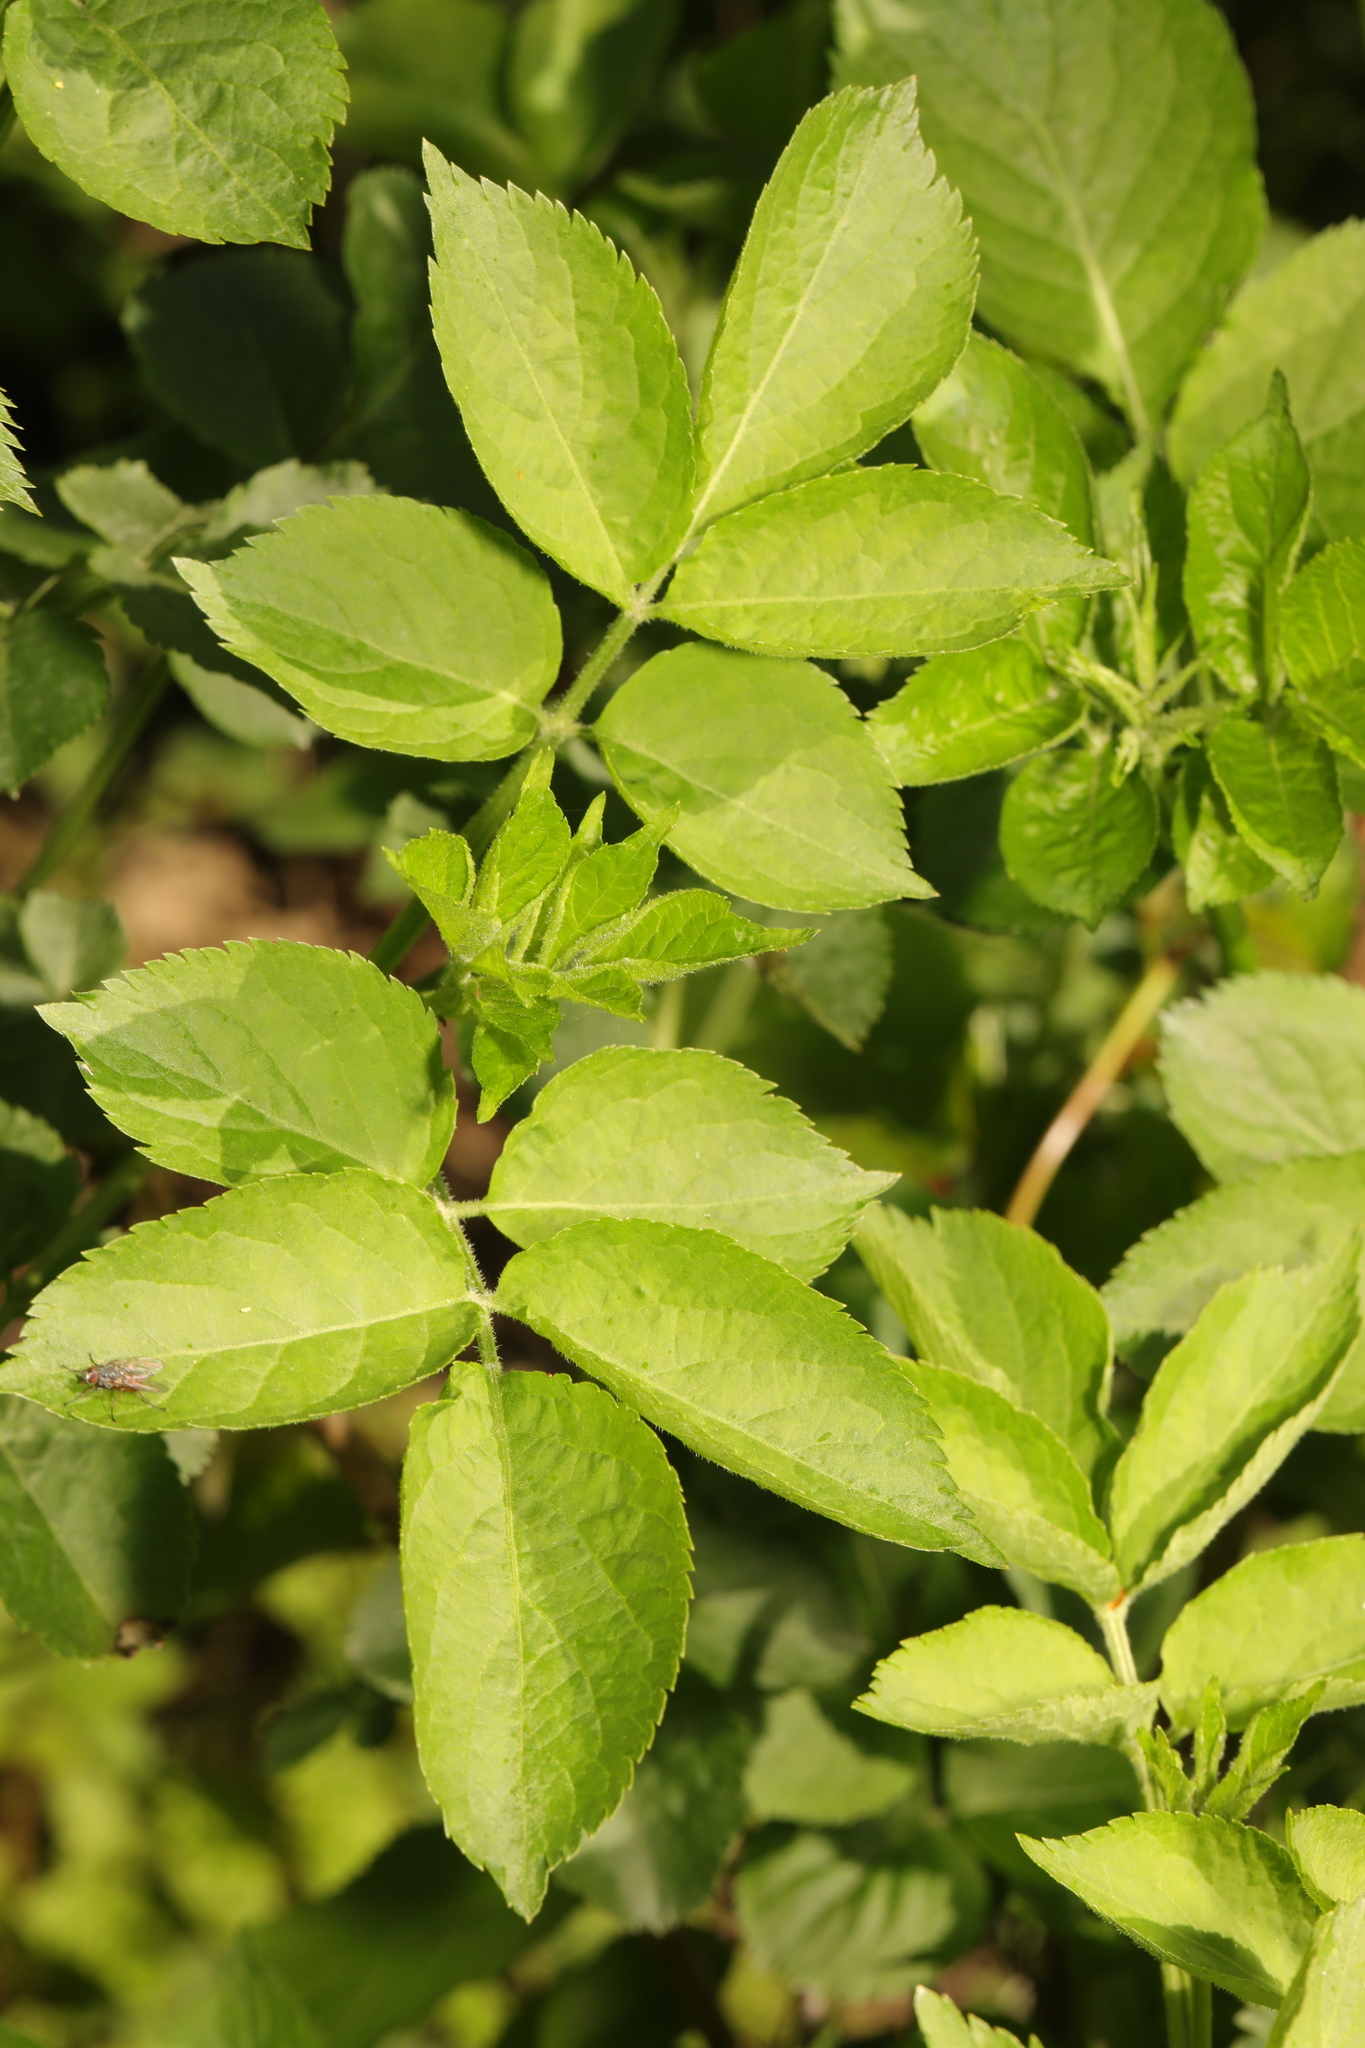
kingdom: Plantae
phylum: Tracheophyta
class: Magnoliopsida
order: Dipsacales
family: Viburnaceae
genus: Sambucus
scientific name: Sambucus nigra
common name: Elder
